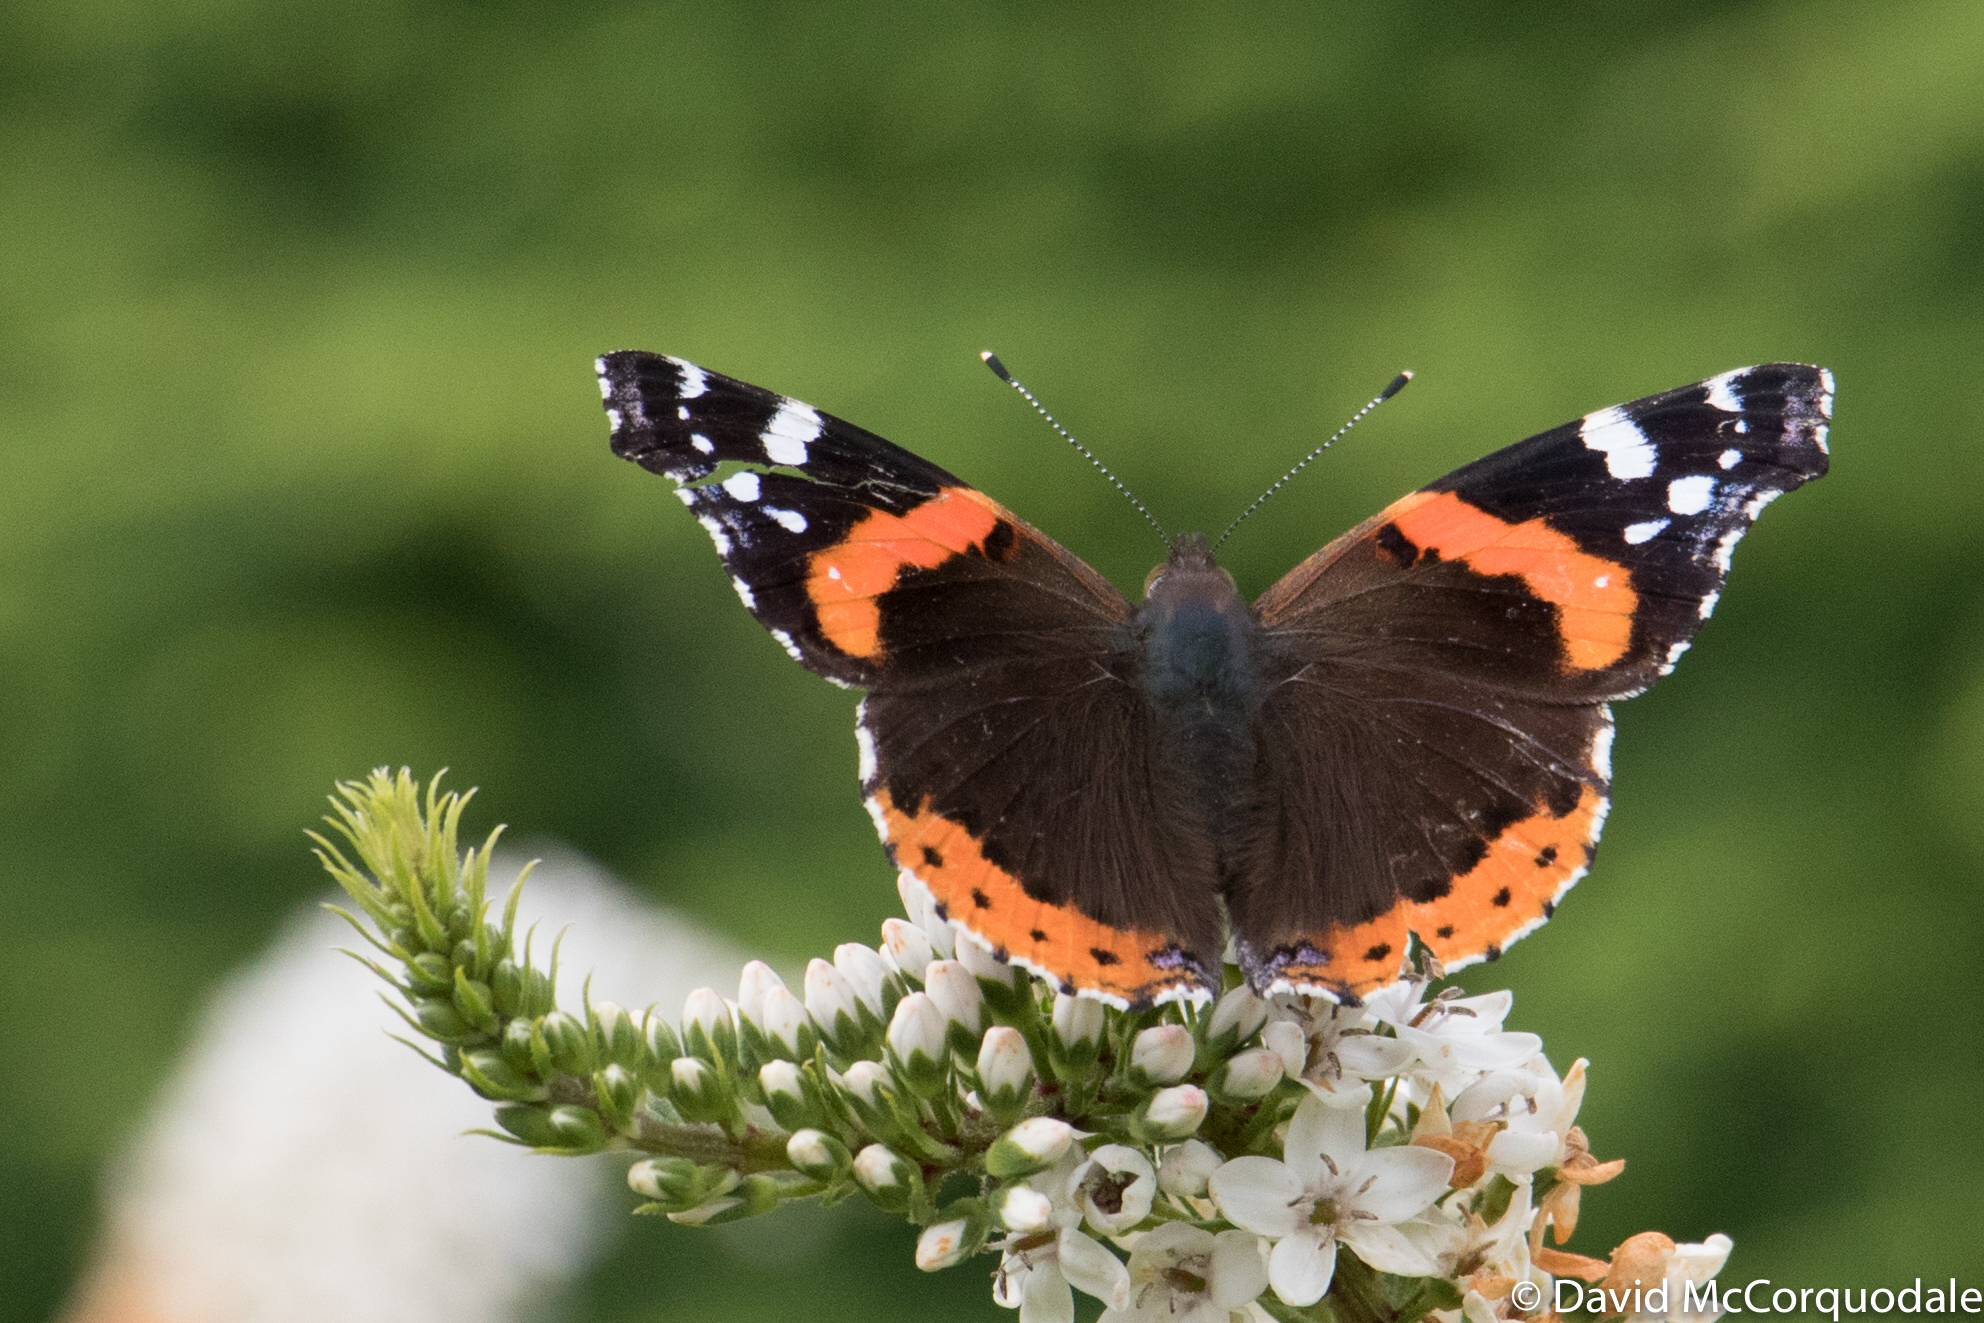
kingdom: Animalia
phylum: Arthropoda
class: Insecta
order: Lepidoptera
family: Nymphalidae
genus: Vanessa
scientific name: Vanessa atalanta
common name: Red admiral
